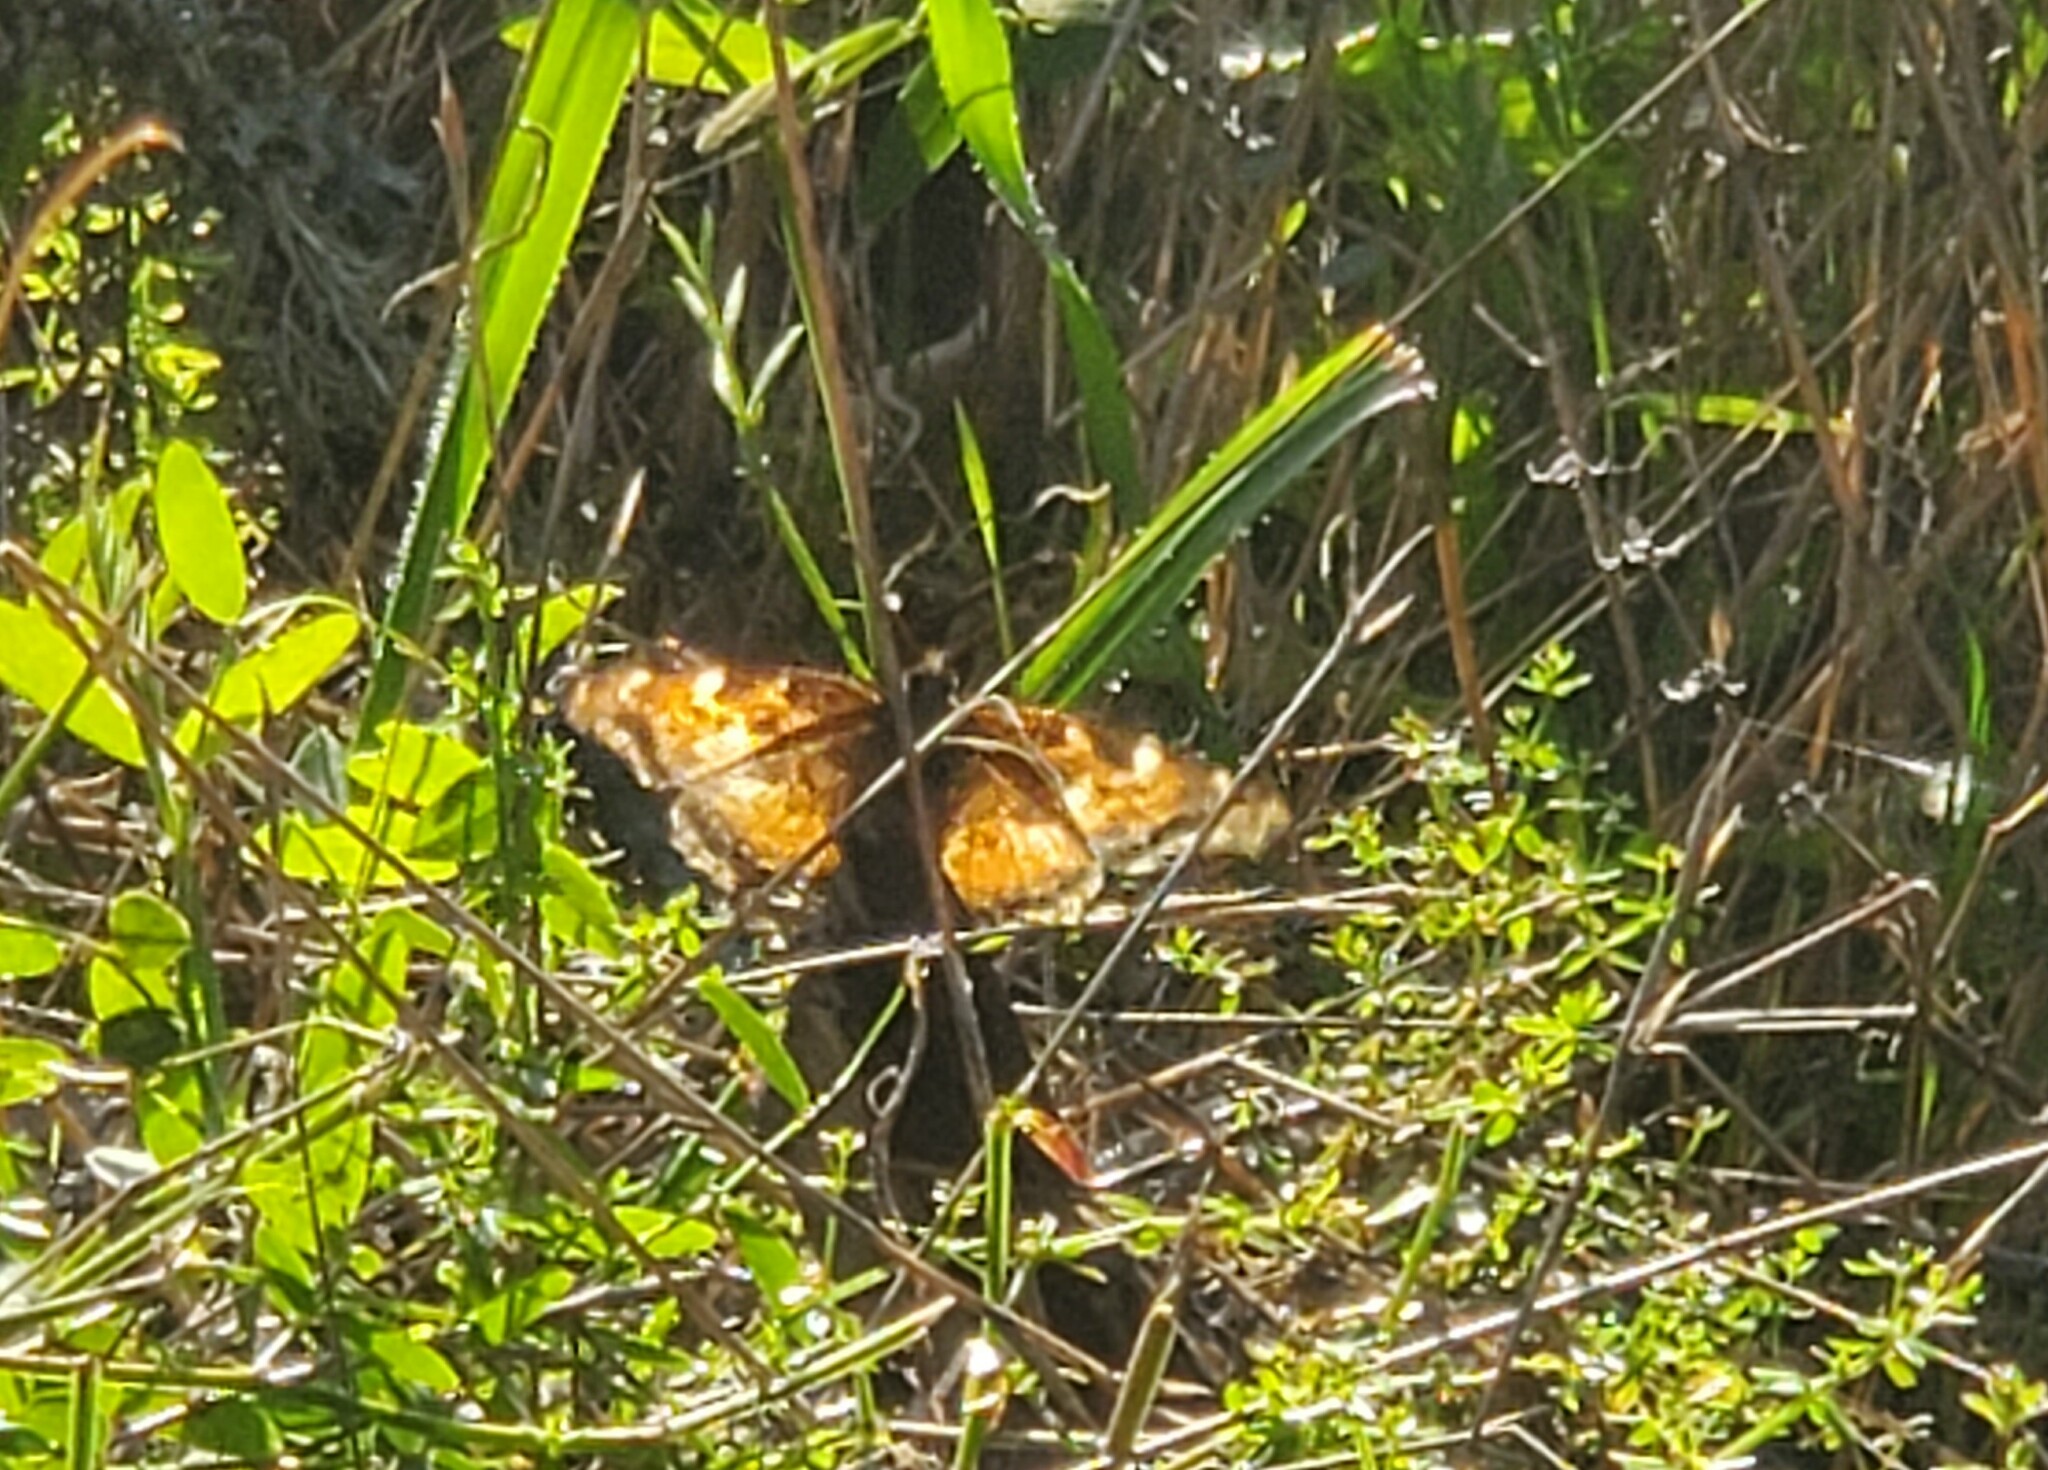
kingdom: Animalia
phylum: Arthropoda
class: Insecta
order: Lepidoptera
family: Nymphalidae
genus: Nymphalis
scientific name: Nymphalis californica
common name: California tortoiseshell
